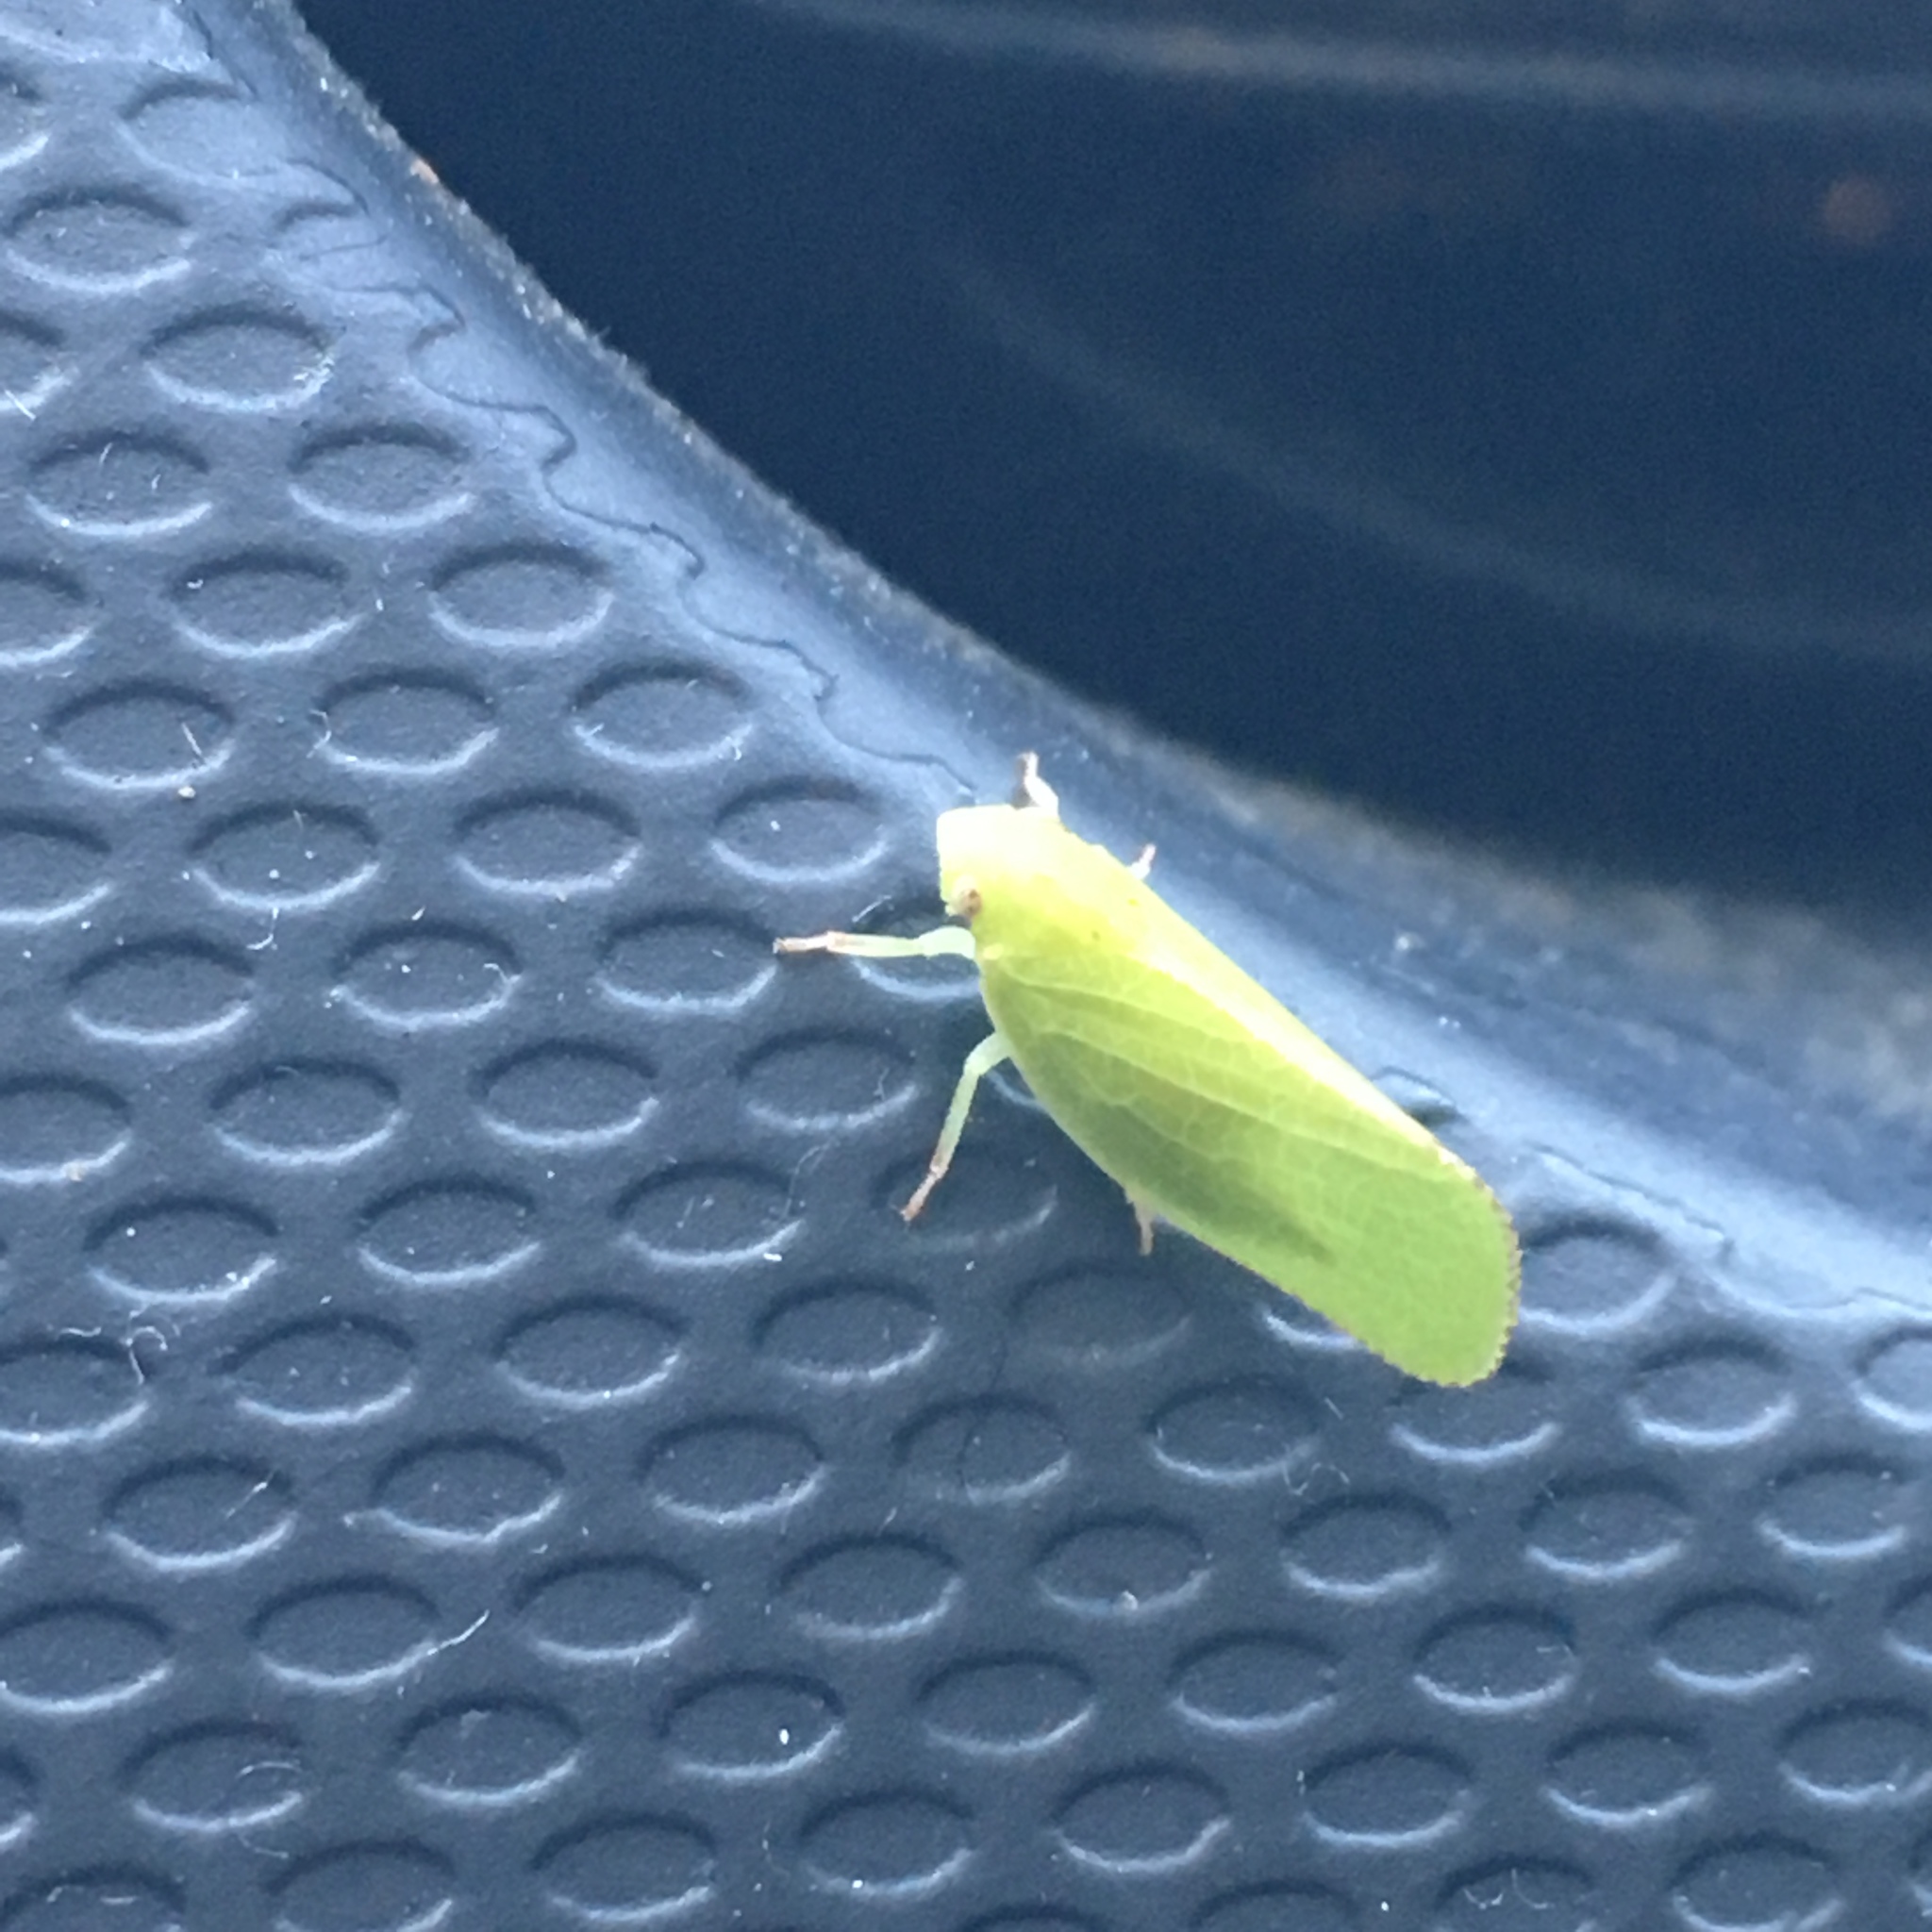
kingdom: Animalia
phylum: Arthropoda
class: Insecta
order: Hemiptera
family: Acanaloniidae
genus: Acanalonia
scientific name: Acanalonia conica
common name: Green cone-headed planthopper
